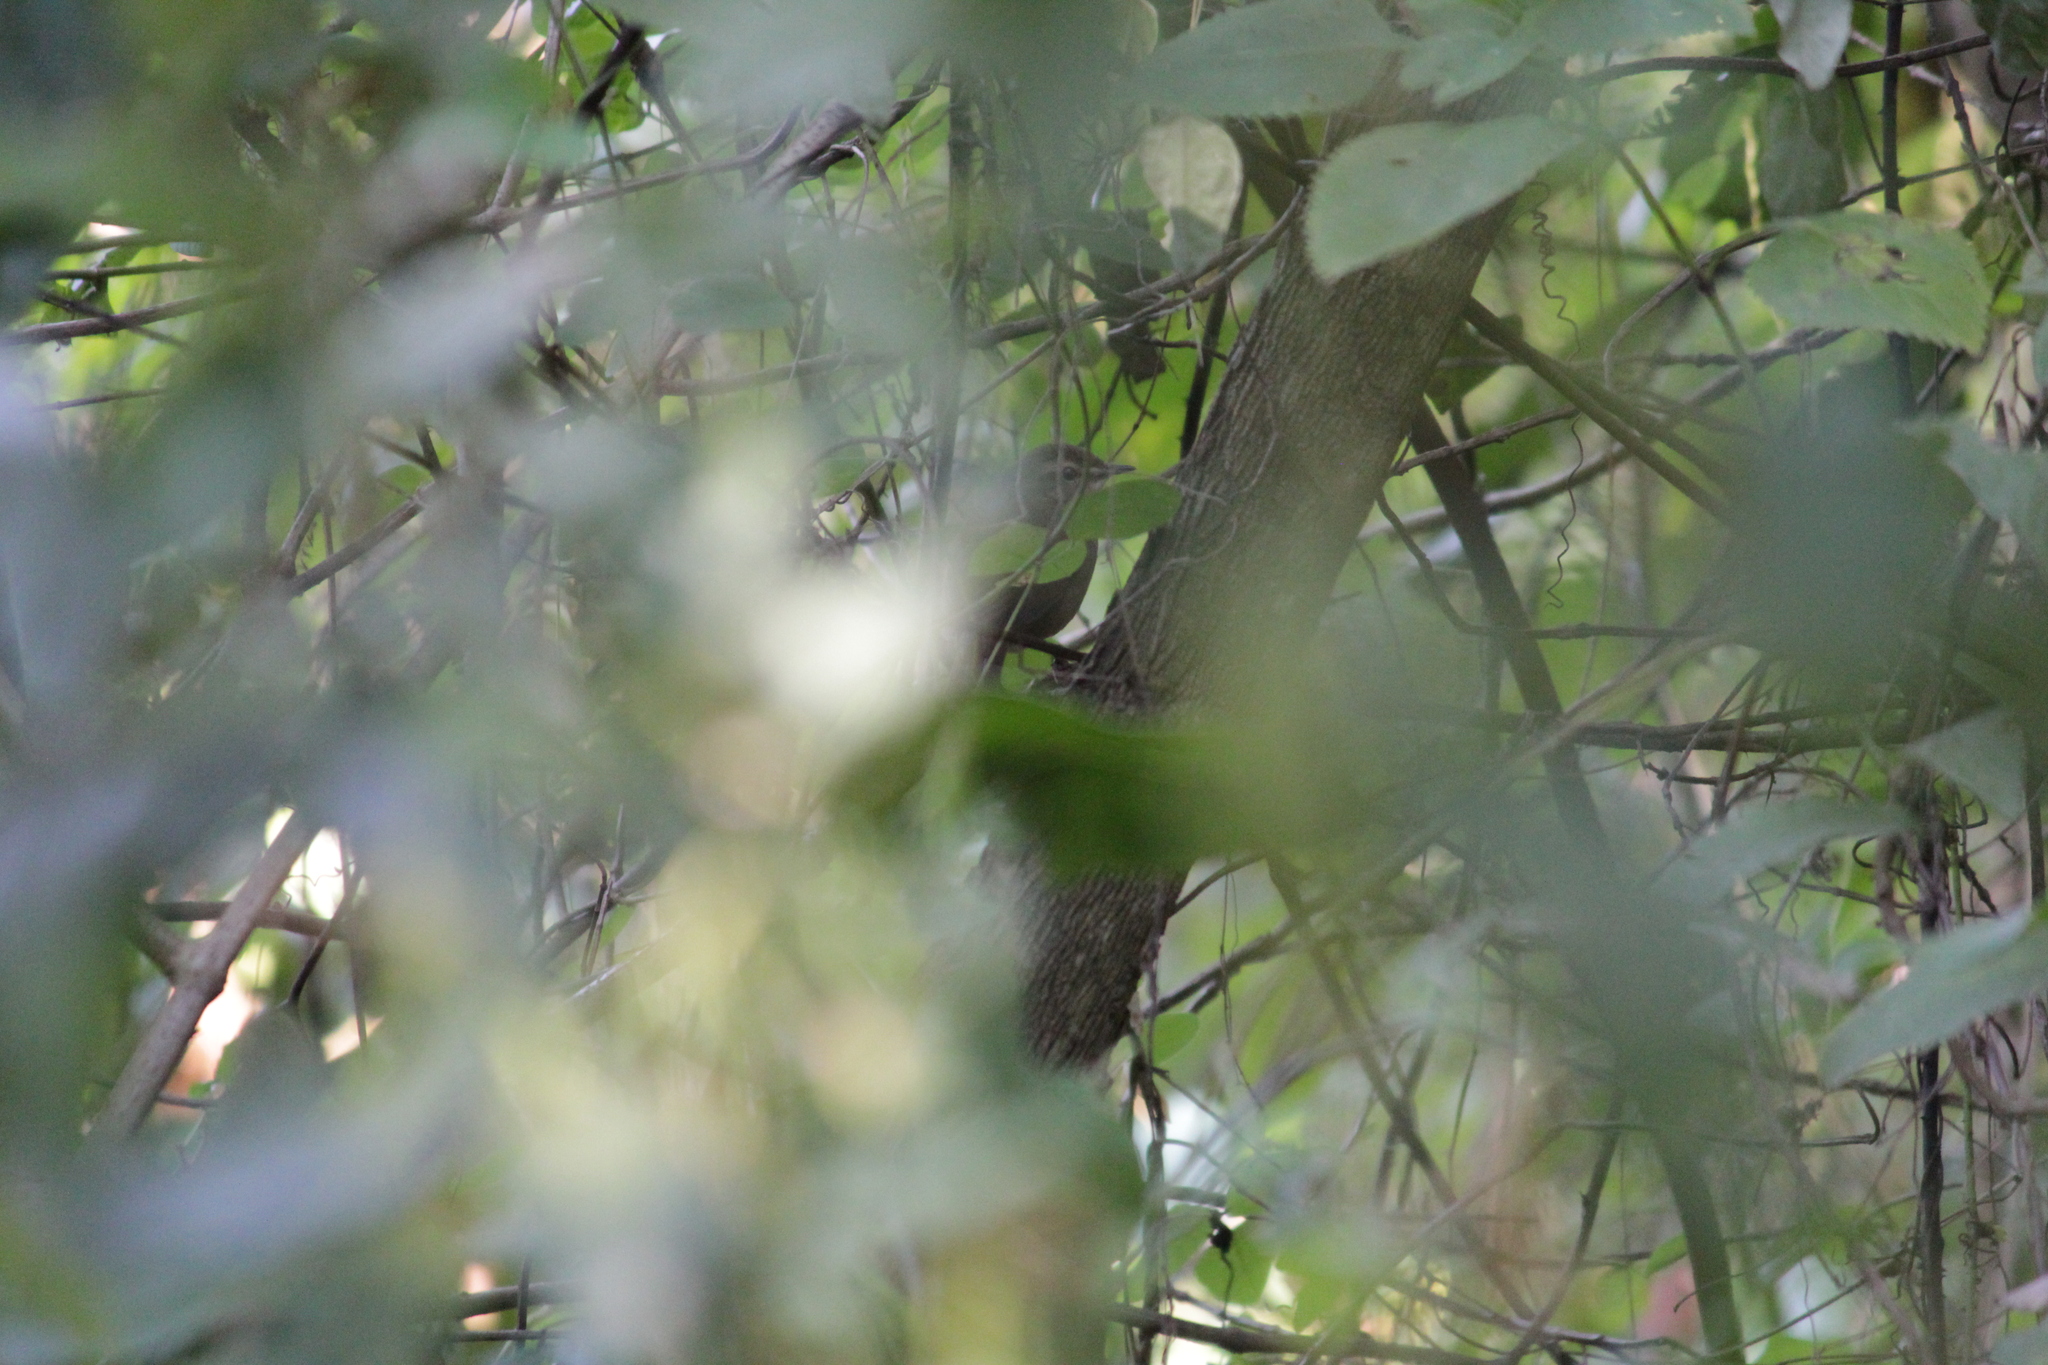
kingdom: Animalia
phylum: Chordata
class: Aves
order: Passeriformes
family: Locustellidae
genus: Bradypterus
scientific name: Bradypterus lopezi
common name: Evergreen forest warbler
